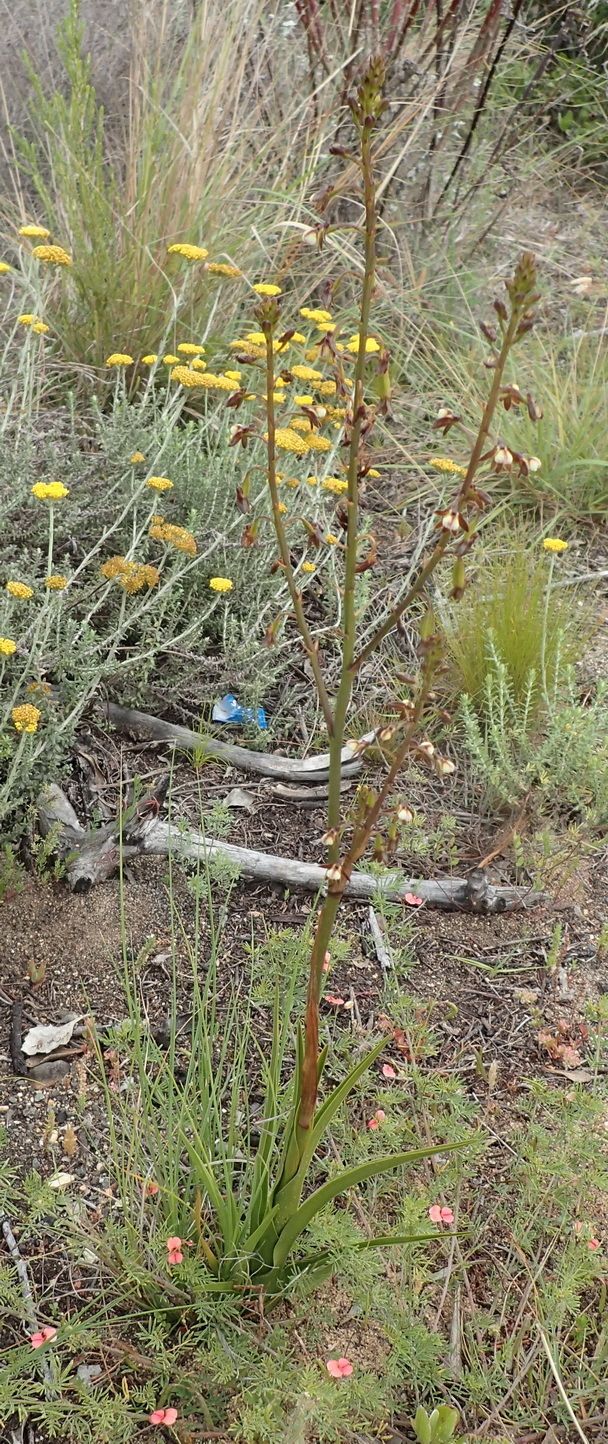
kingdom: Plantae
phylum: Tracheophyta
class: Liliopsida
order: Asparagales
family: Orchidaceae
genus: Eulophia
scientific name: Eulophia cochlearis
